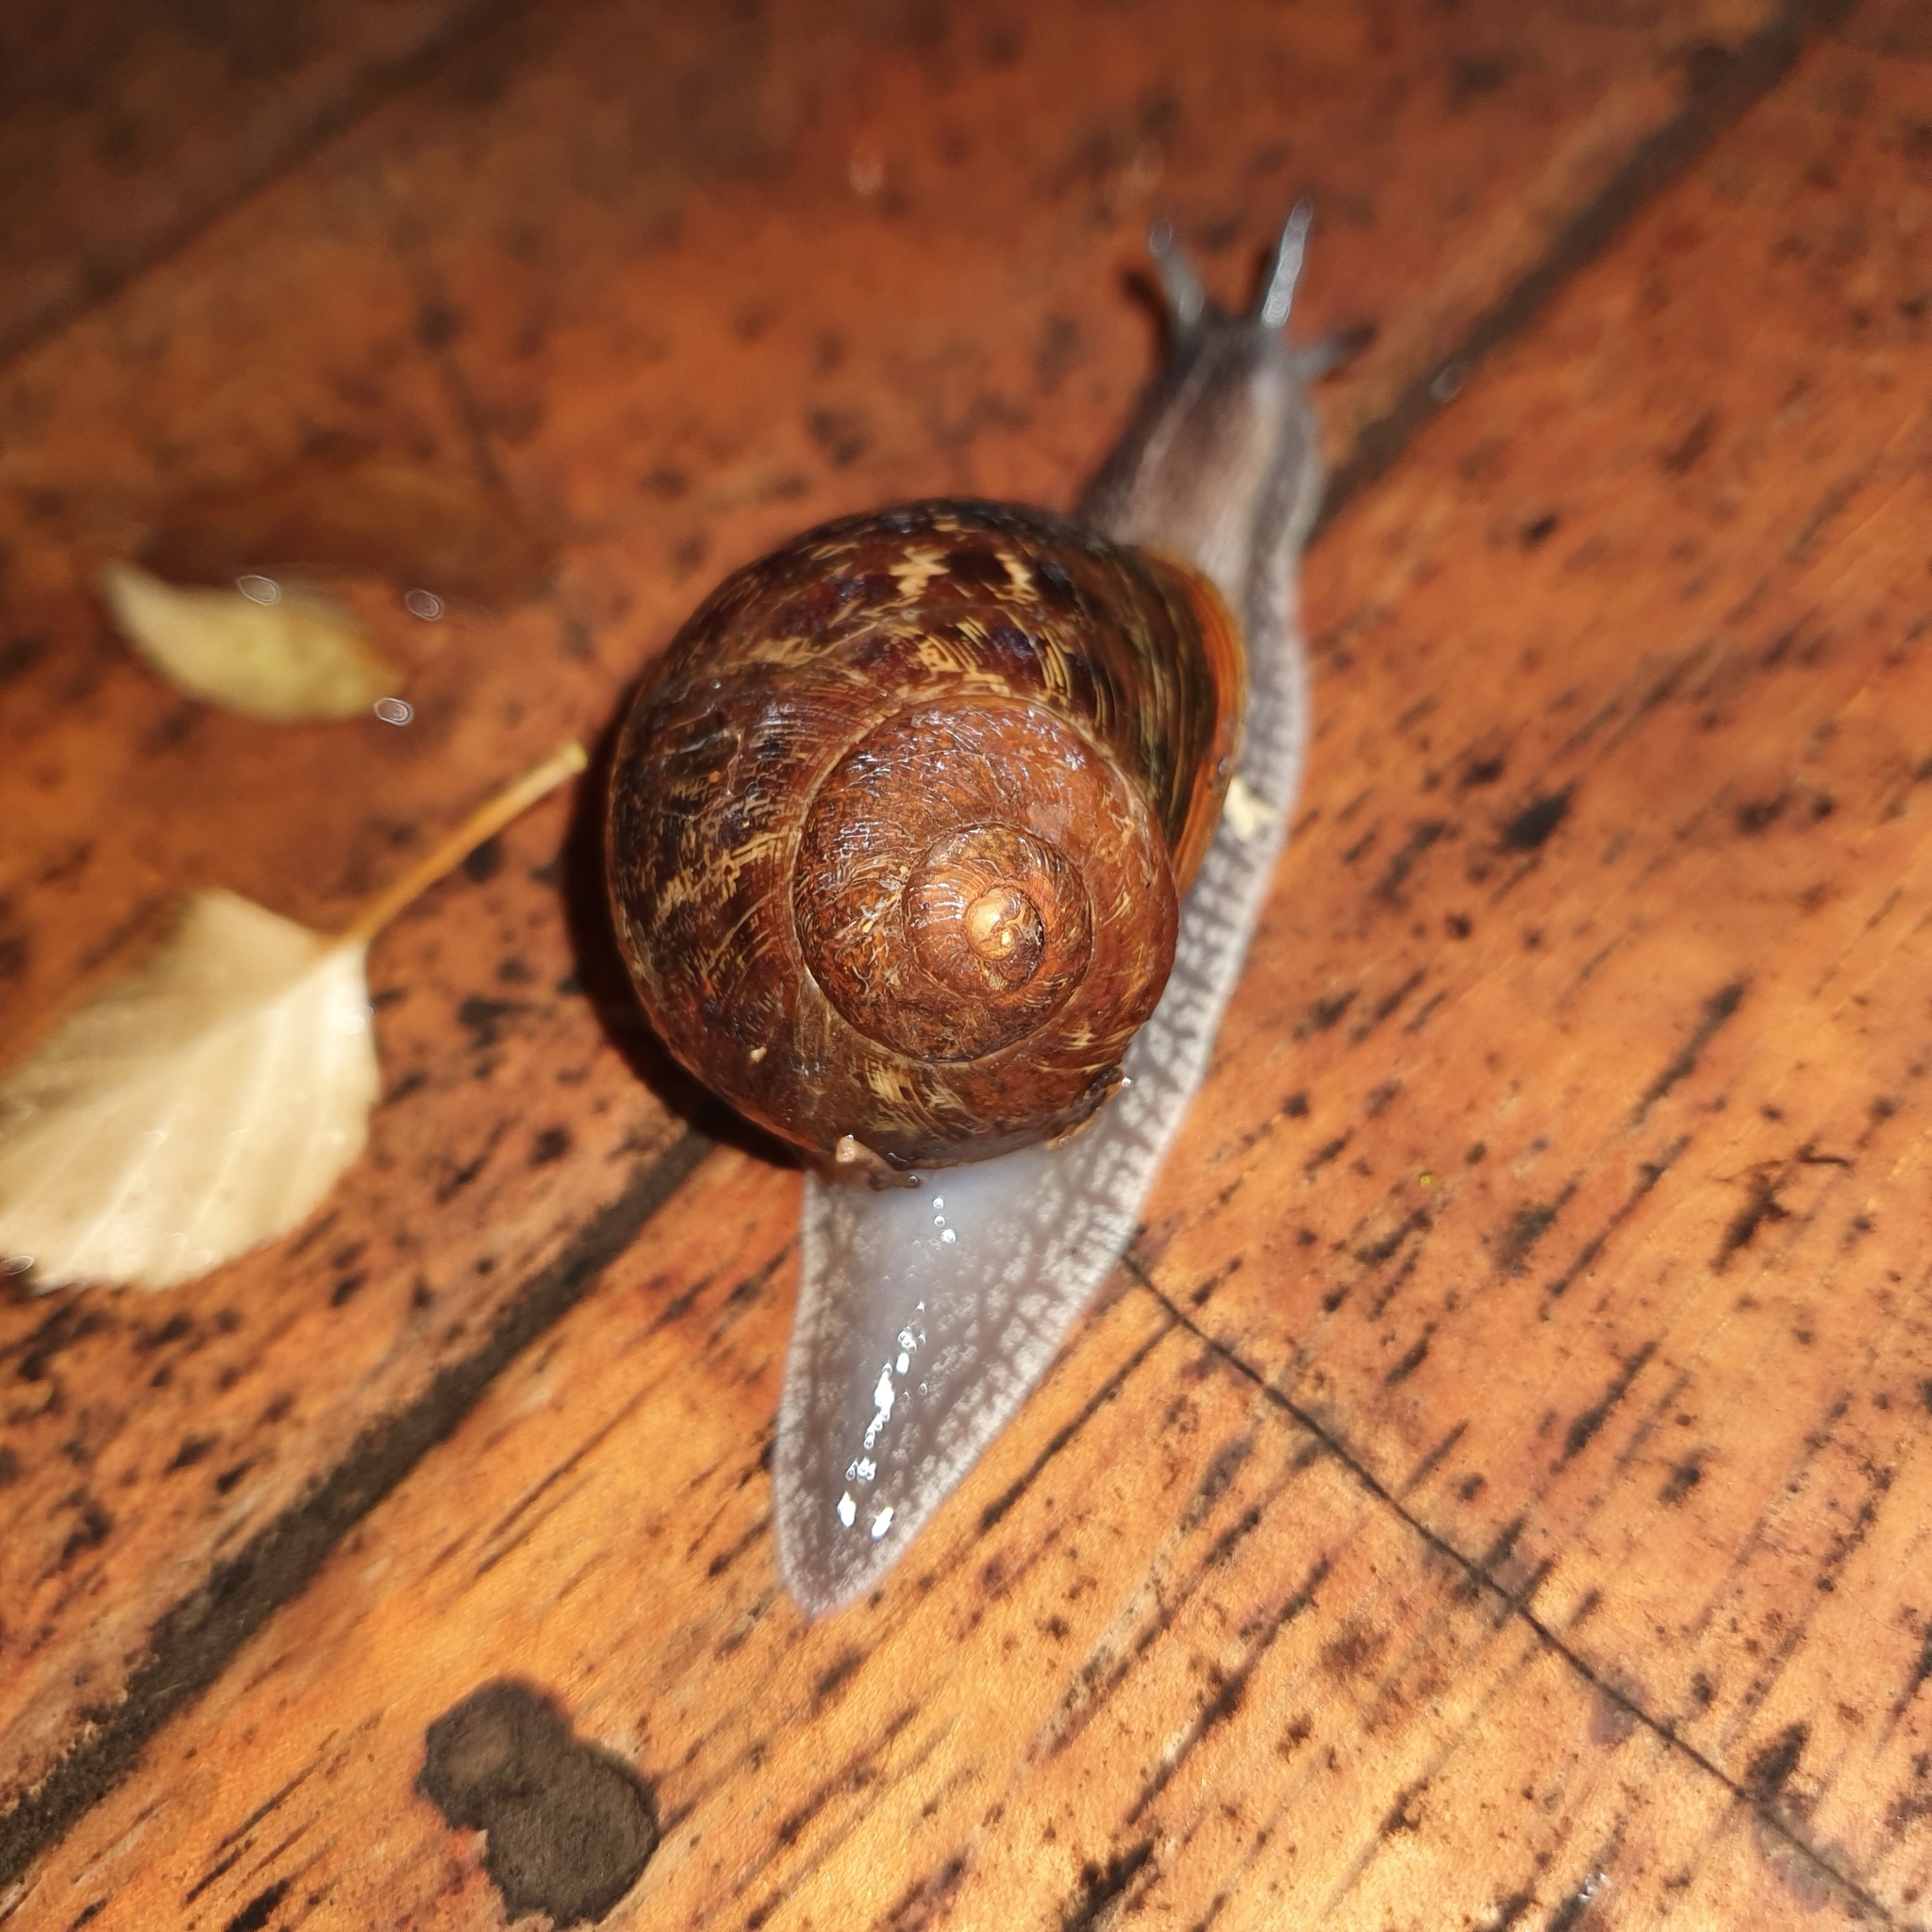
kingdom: Animalia
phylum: Mollusca
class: Gastropoda
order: Stylommatophora
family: Helicidae
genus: Cornu
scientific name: Cornu aspersum
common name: Brown garden snail
